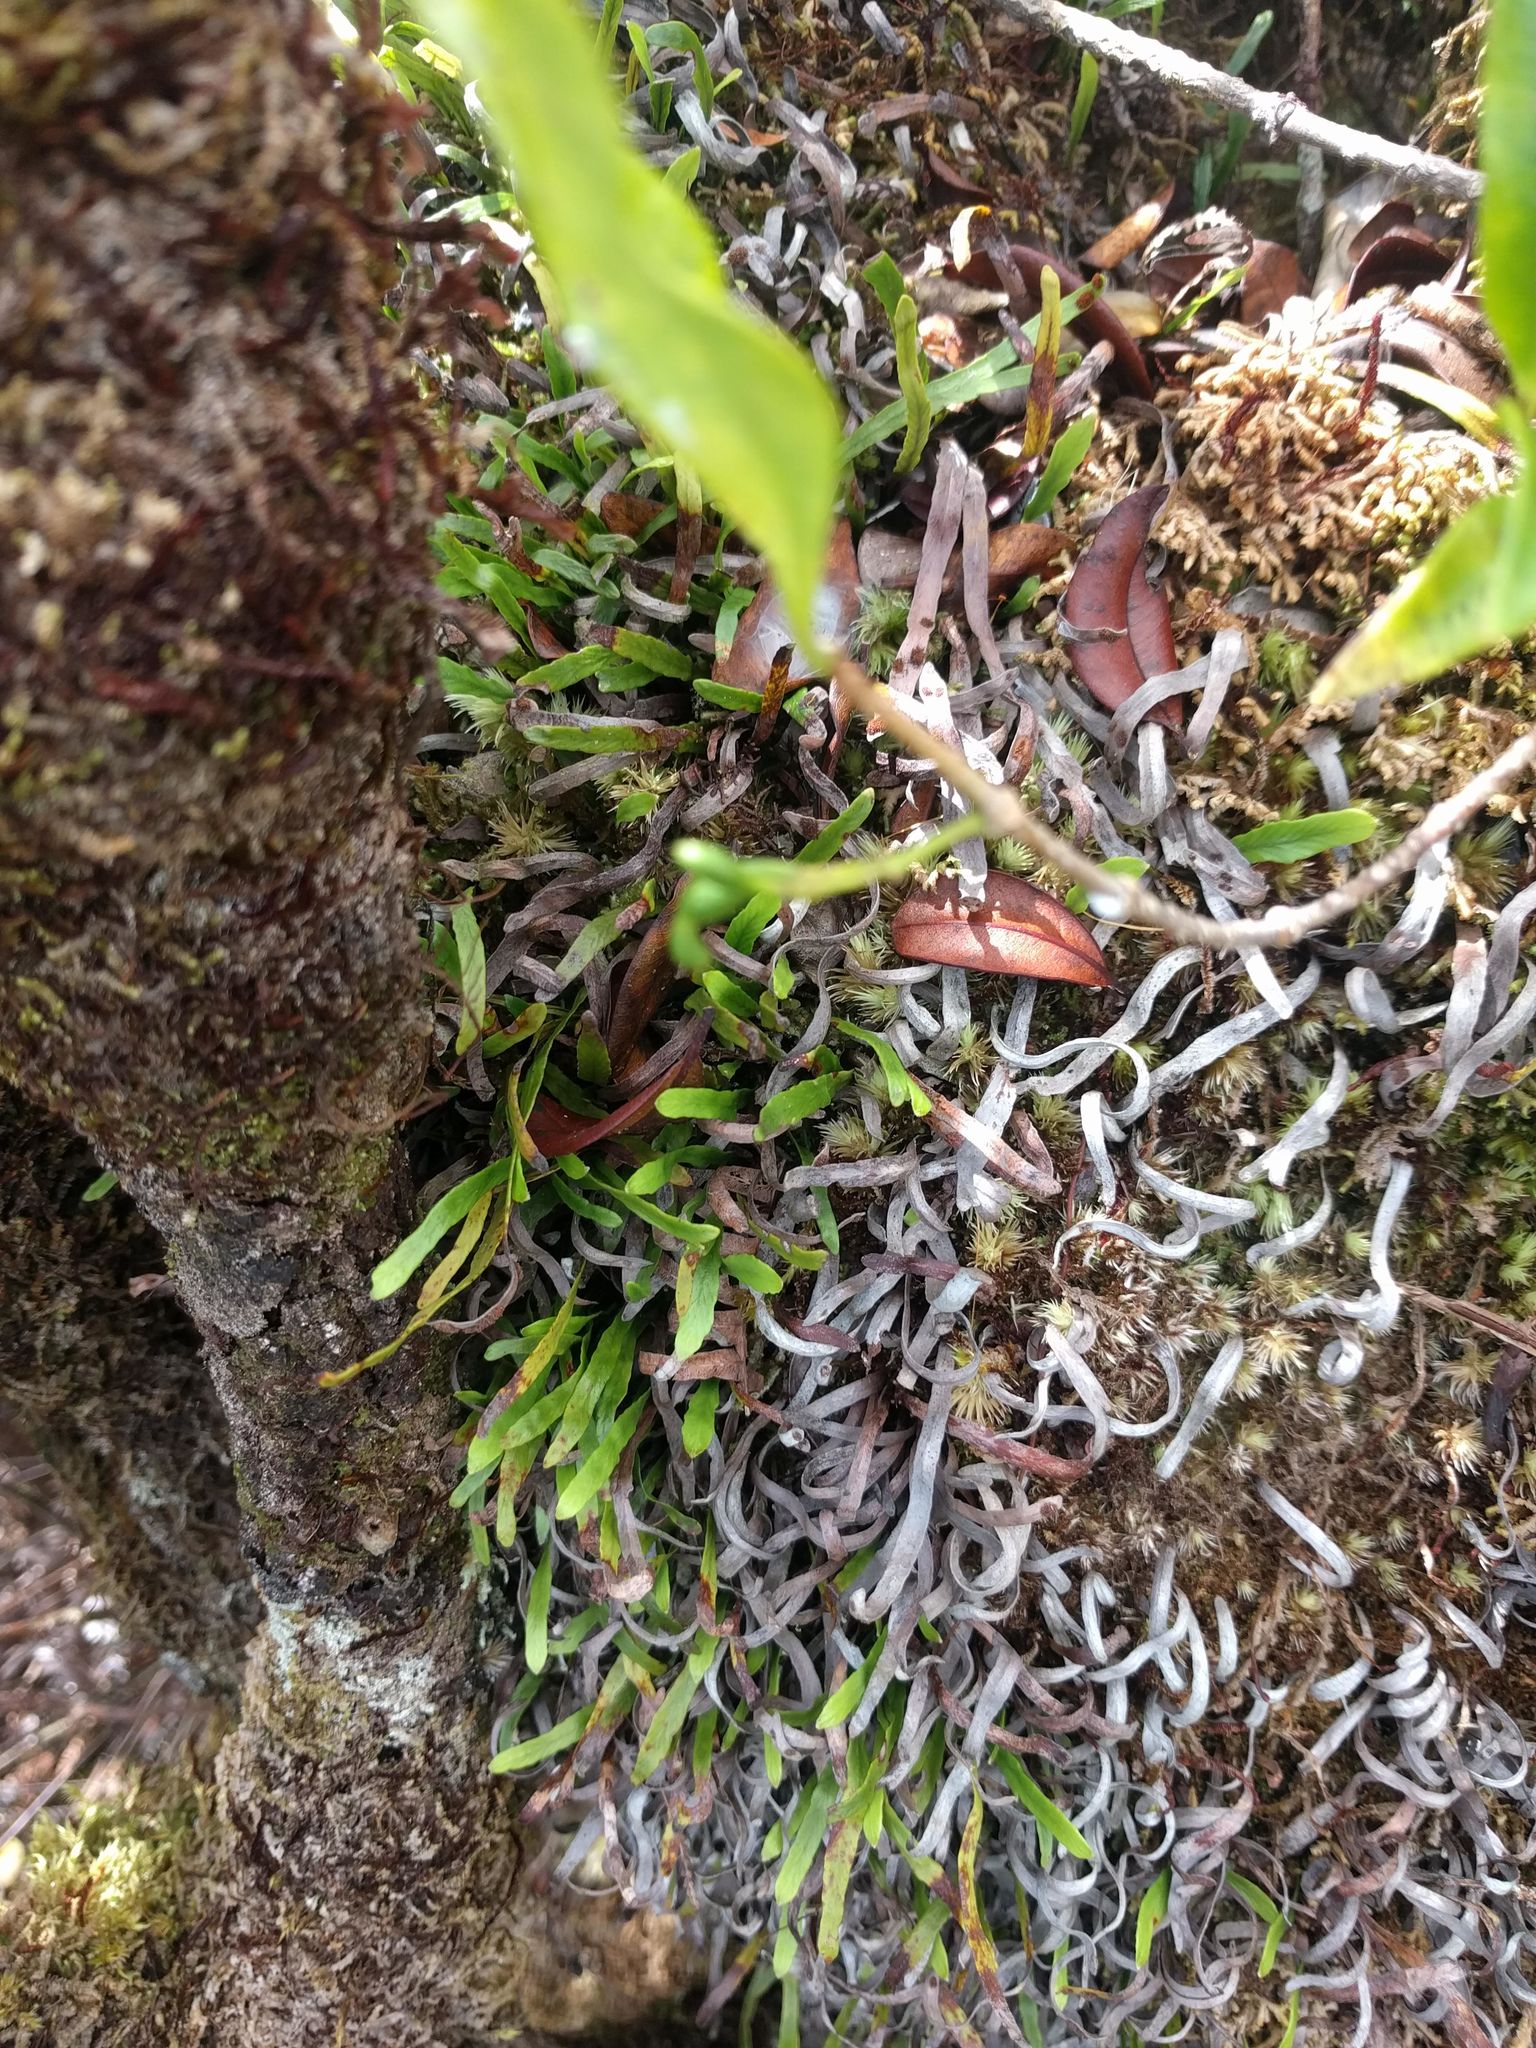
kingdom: Plantae
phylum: Tracheophyta
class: Polypodiopsida
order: Polypodiales
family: Polypodiaceae
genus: Adenophorus
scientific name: Adenophorus tenellus
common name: Kolokolo
